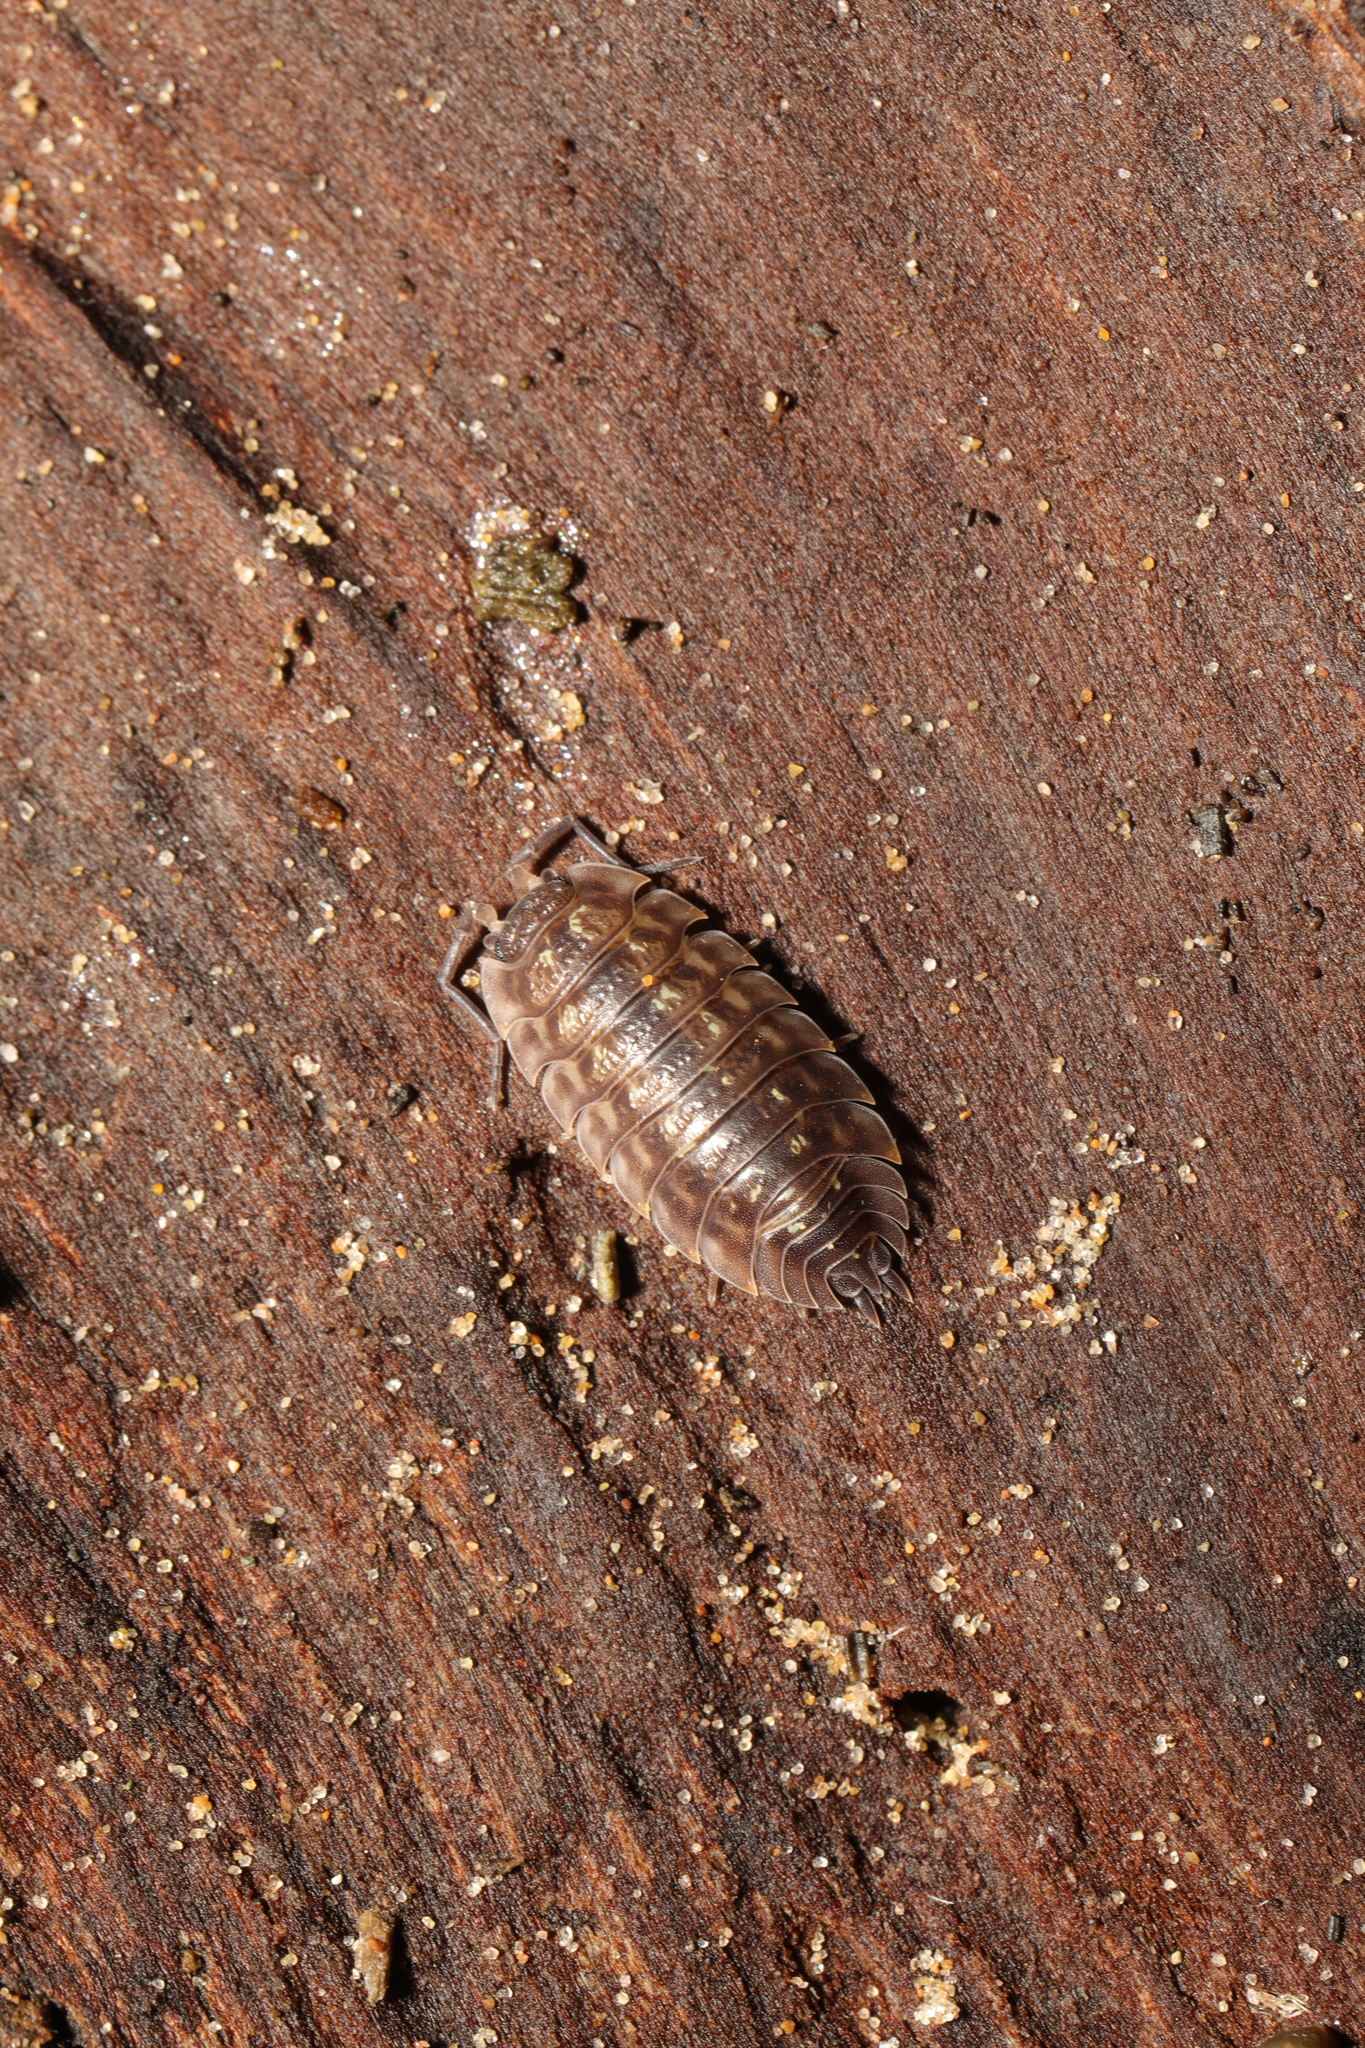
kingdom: Animalia
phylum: Arthropoda
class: Malacostraca
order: Isopoda
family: Oniscidae
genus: Oniscus
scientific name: Oniscus asellus
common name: Common shiny woodlouse
